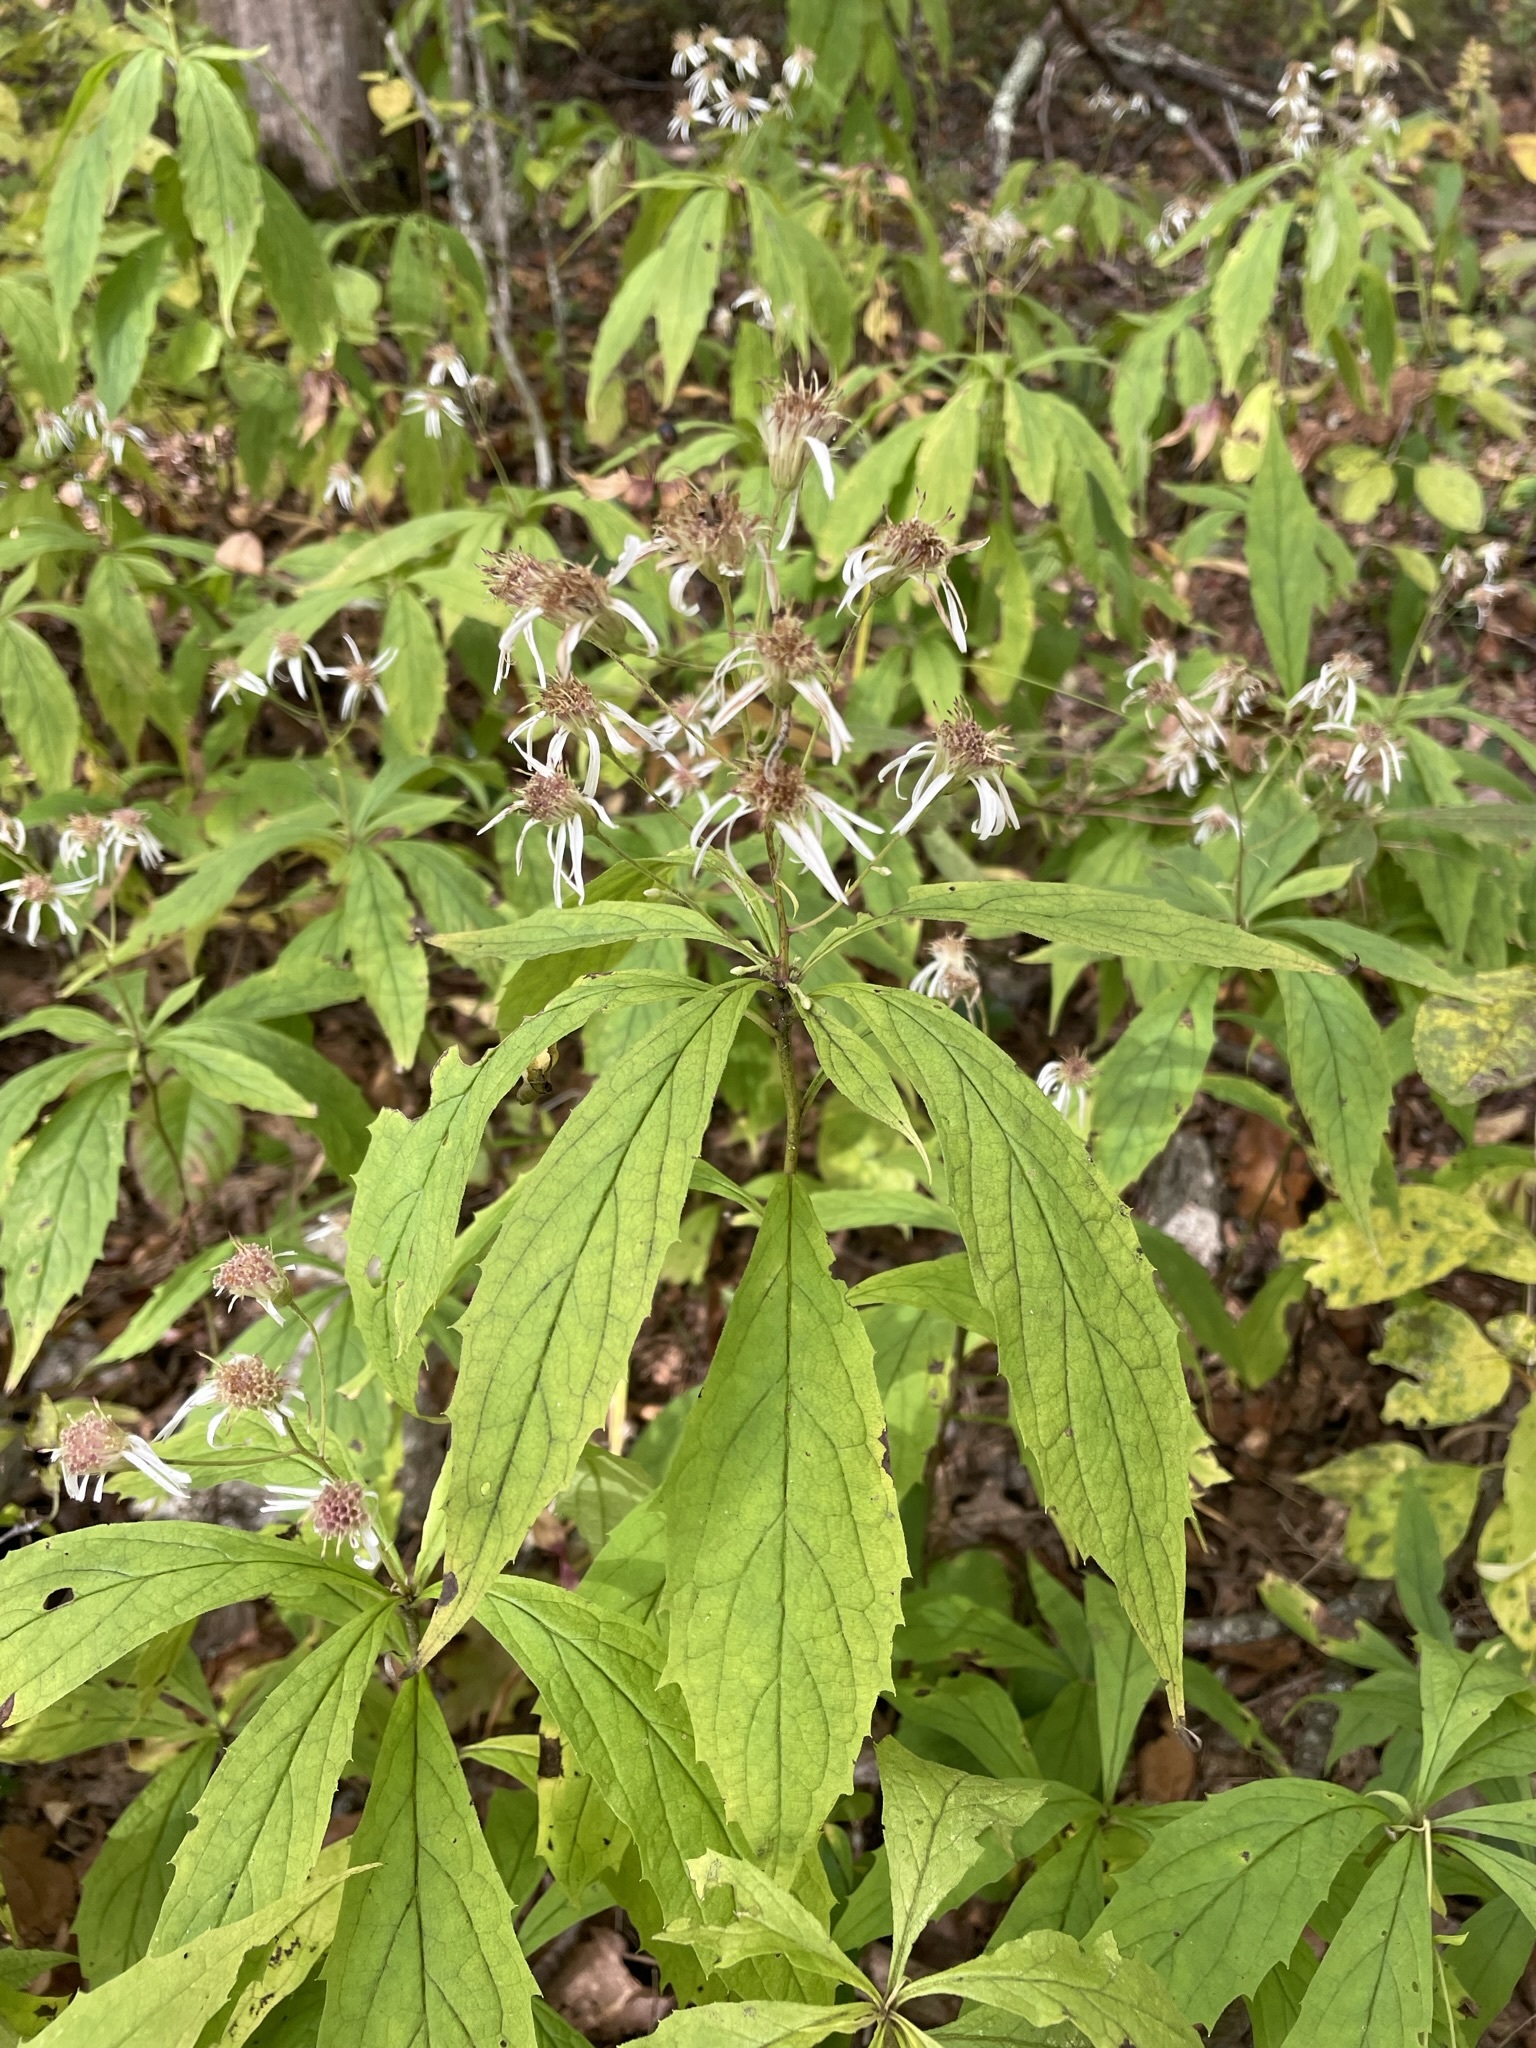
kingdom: Plantae
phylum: Tracheophyta
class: Magnoliopsida
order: Asterales
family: Asteraceae
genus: Oclemena
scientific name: Oclemena acuminata
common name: Mountain aster
